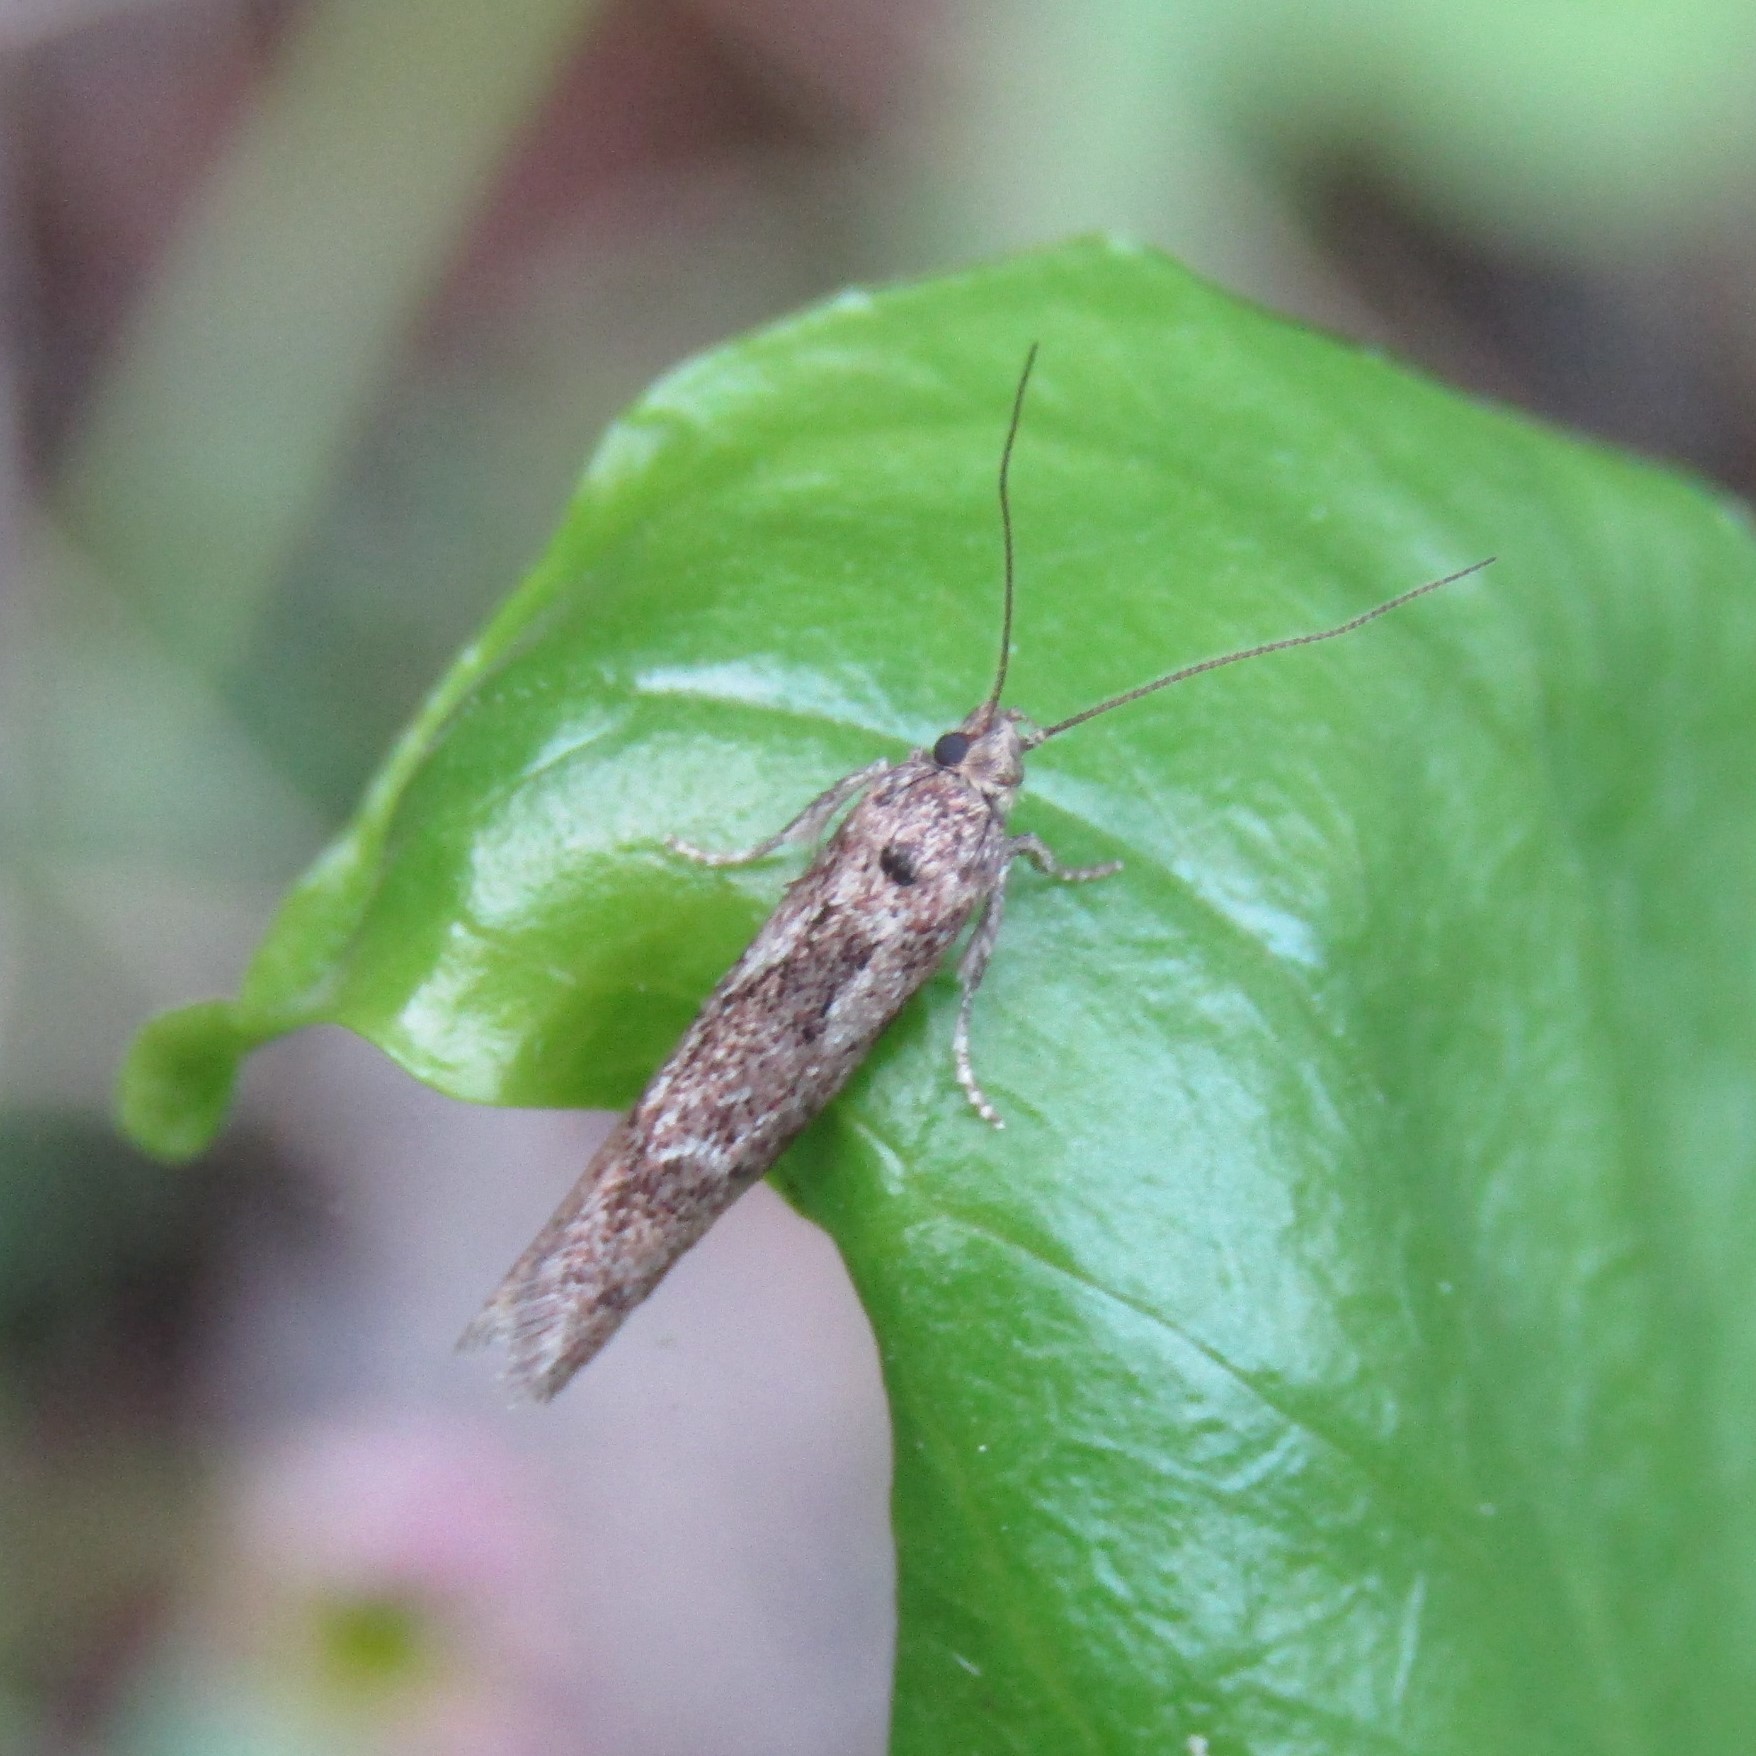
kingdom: Animalia
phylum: Arthropoda
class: Insecta
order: Lepidoptera
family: Oecophoridae
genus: Chersadaula
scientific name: Chersadaula ochrogastra
